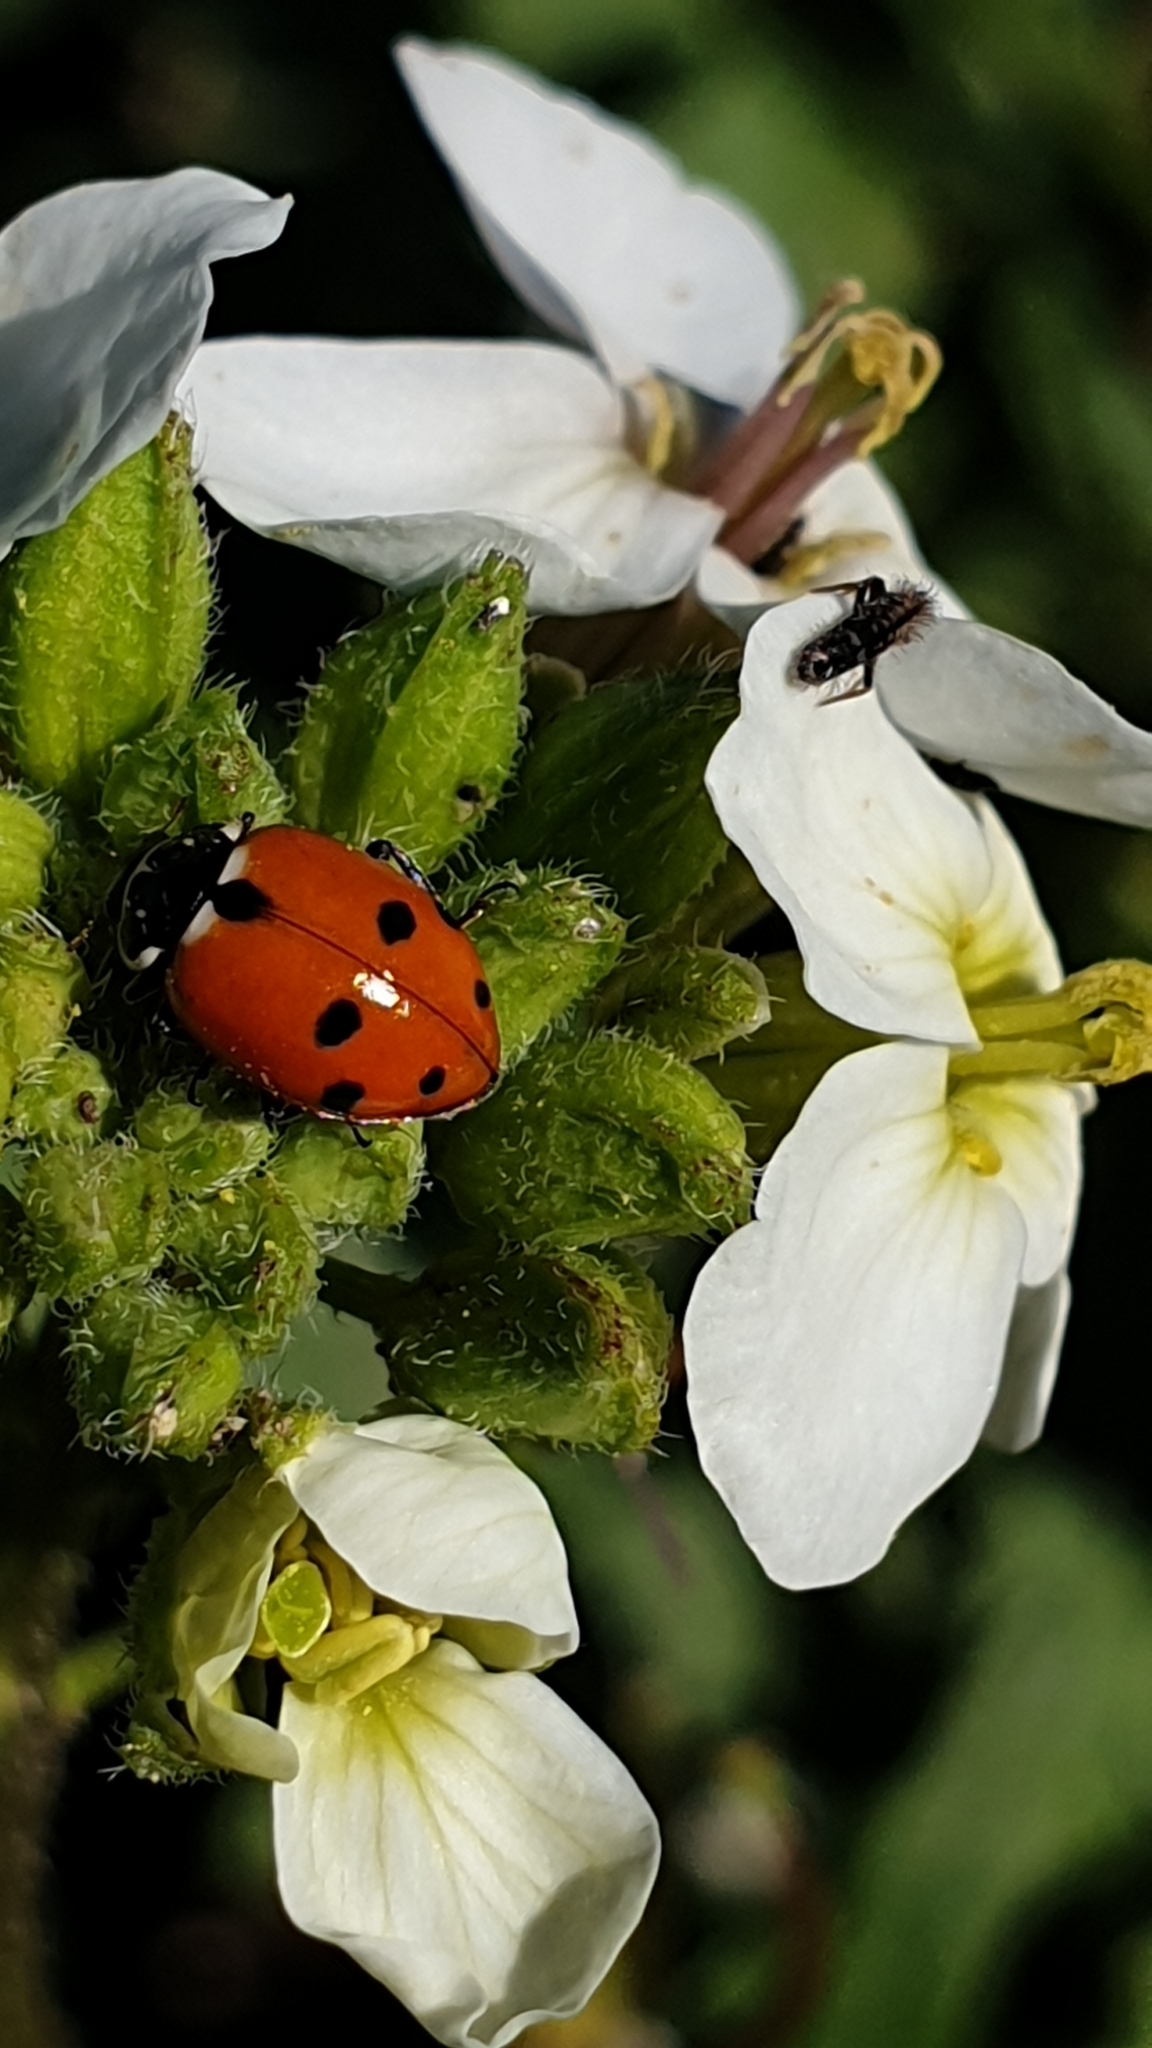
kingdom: Animalia
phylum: Arthropoda
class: Insecta
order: Coleoptera
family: Coccinellidae
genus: Hippodamia
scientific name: Hippodamia variegata
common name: Ladybird beetle
